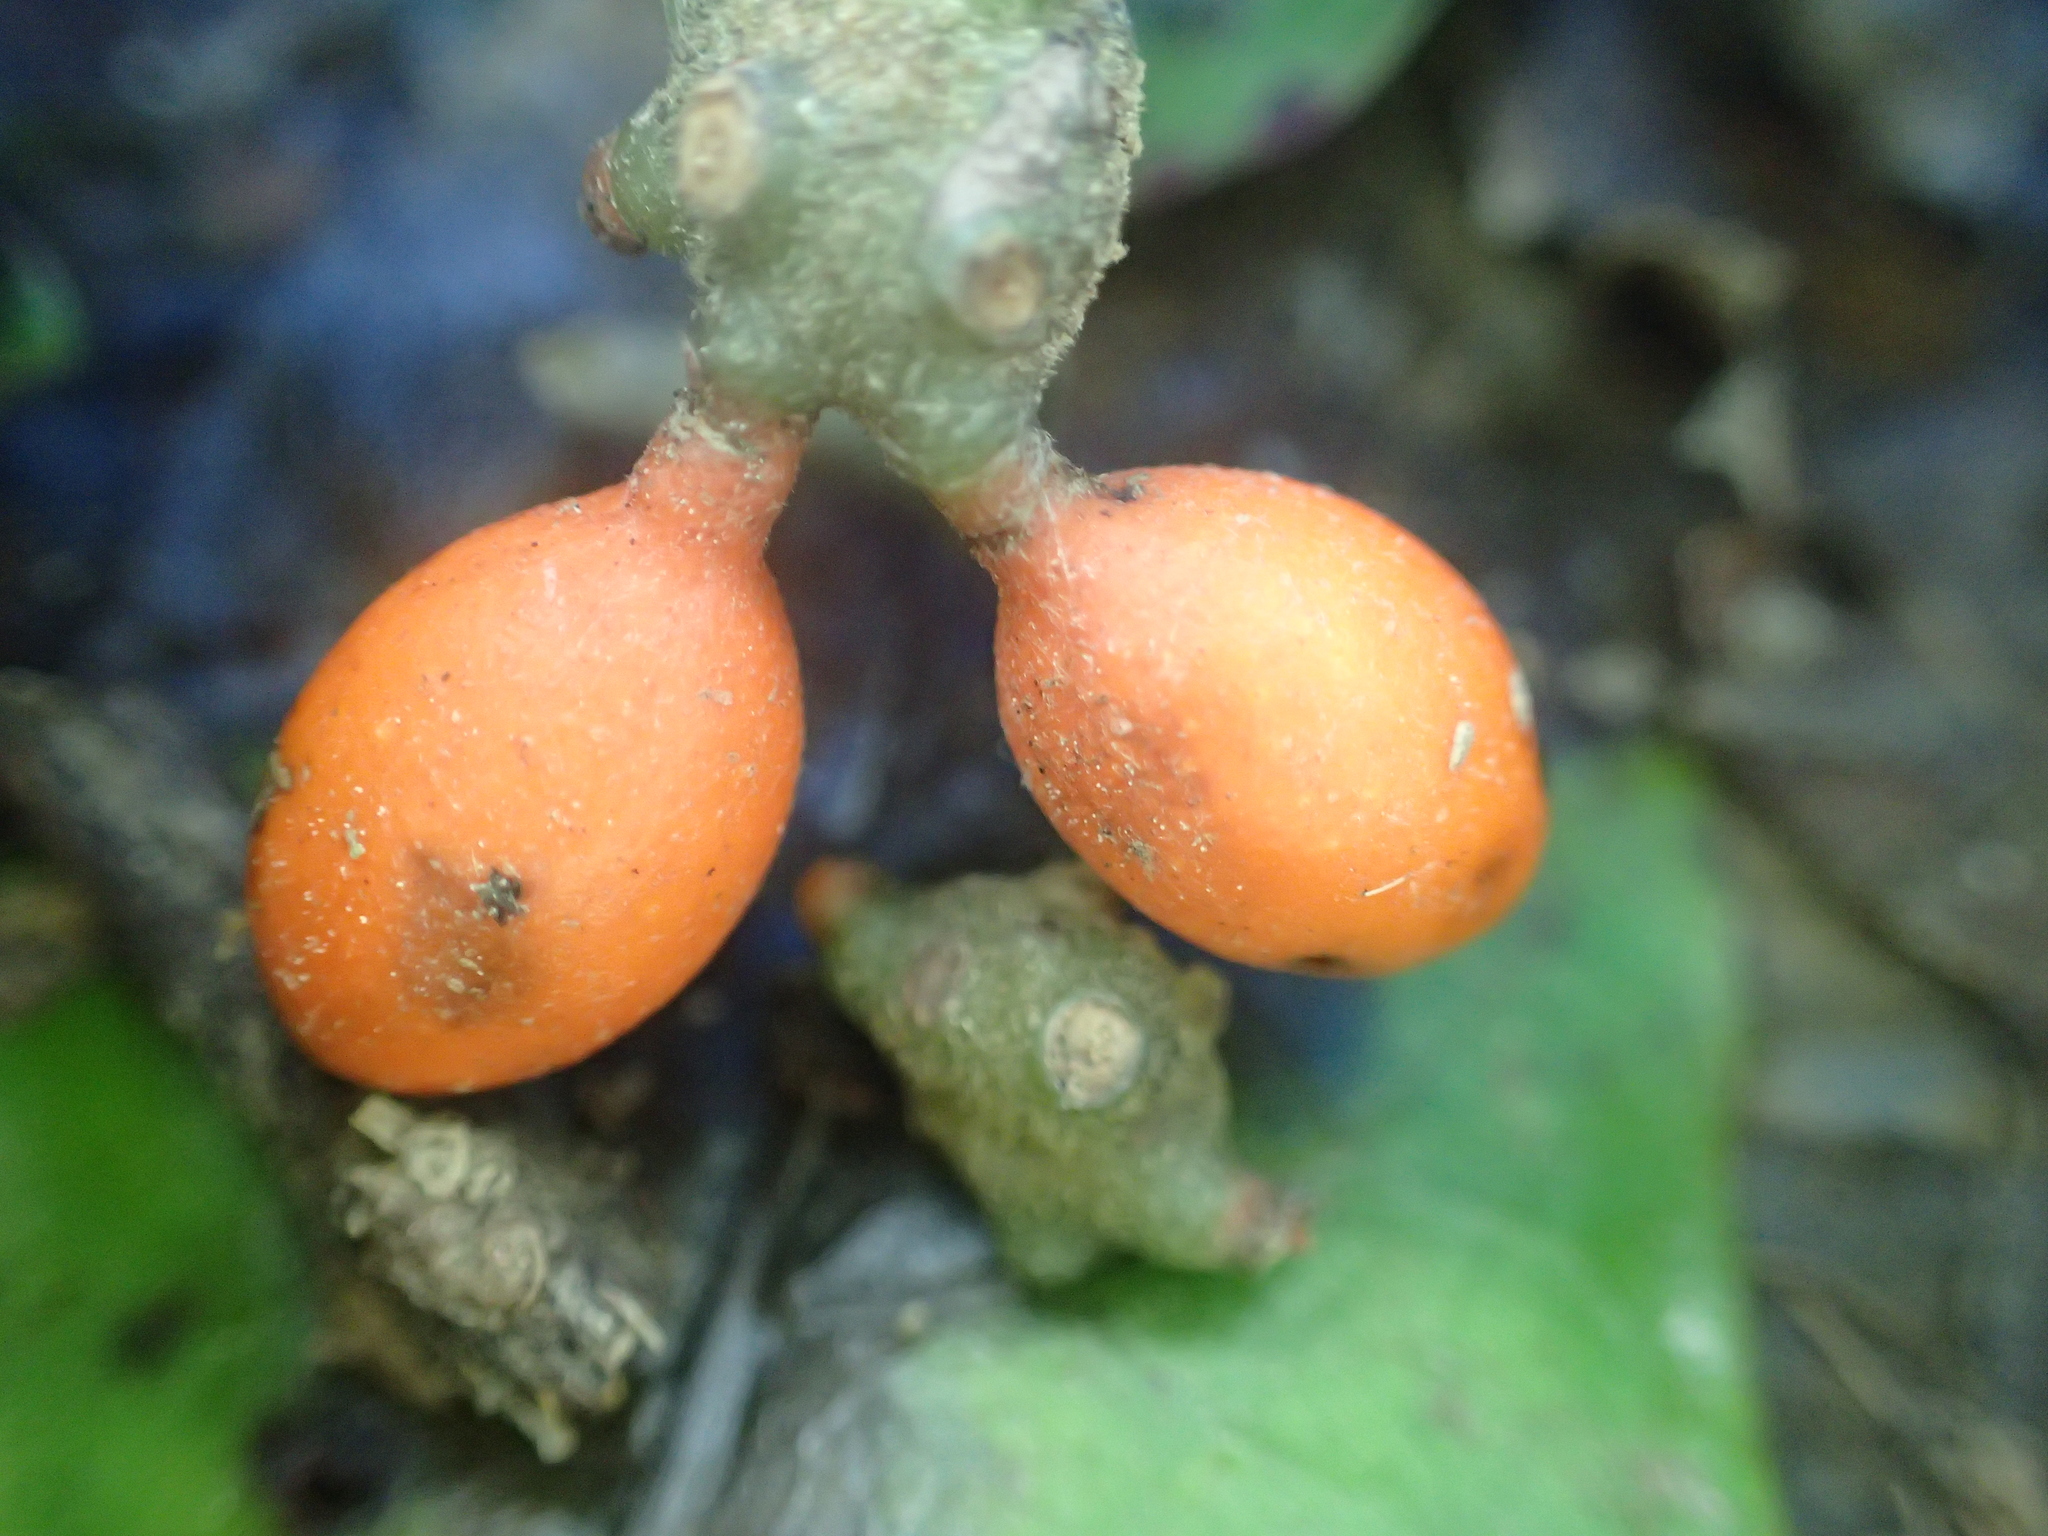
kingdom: Plantae
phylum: Tracheophyta
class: Magnoliopsida
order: Laurales
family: Monimiaceae
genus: Hedycarya
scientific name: Hedycarya arborea
